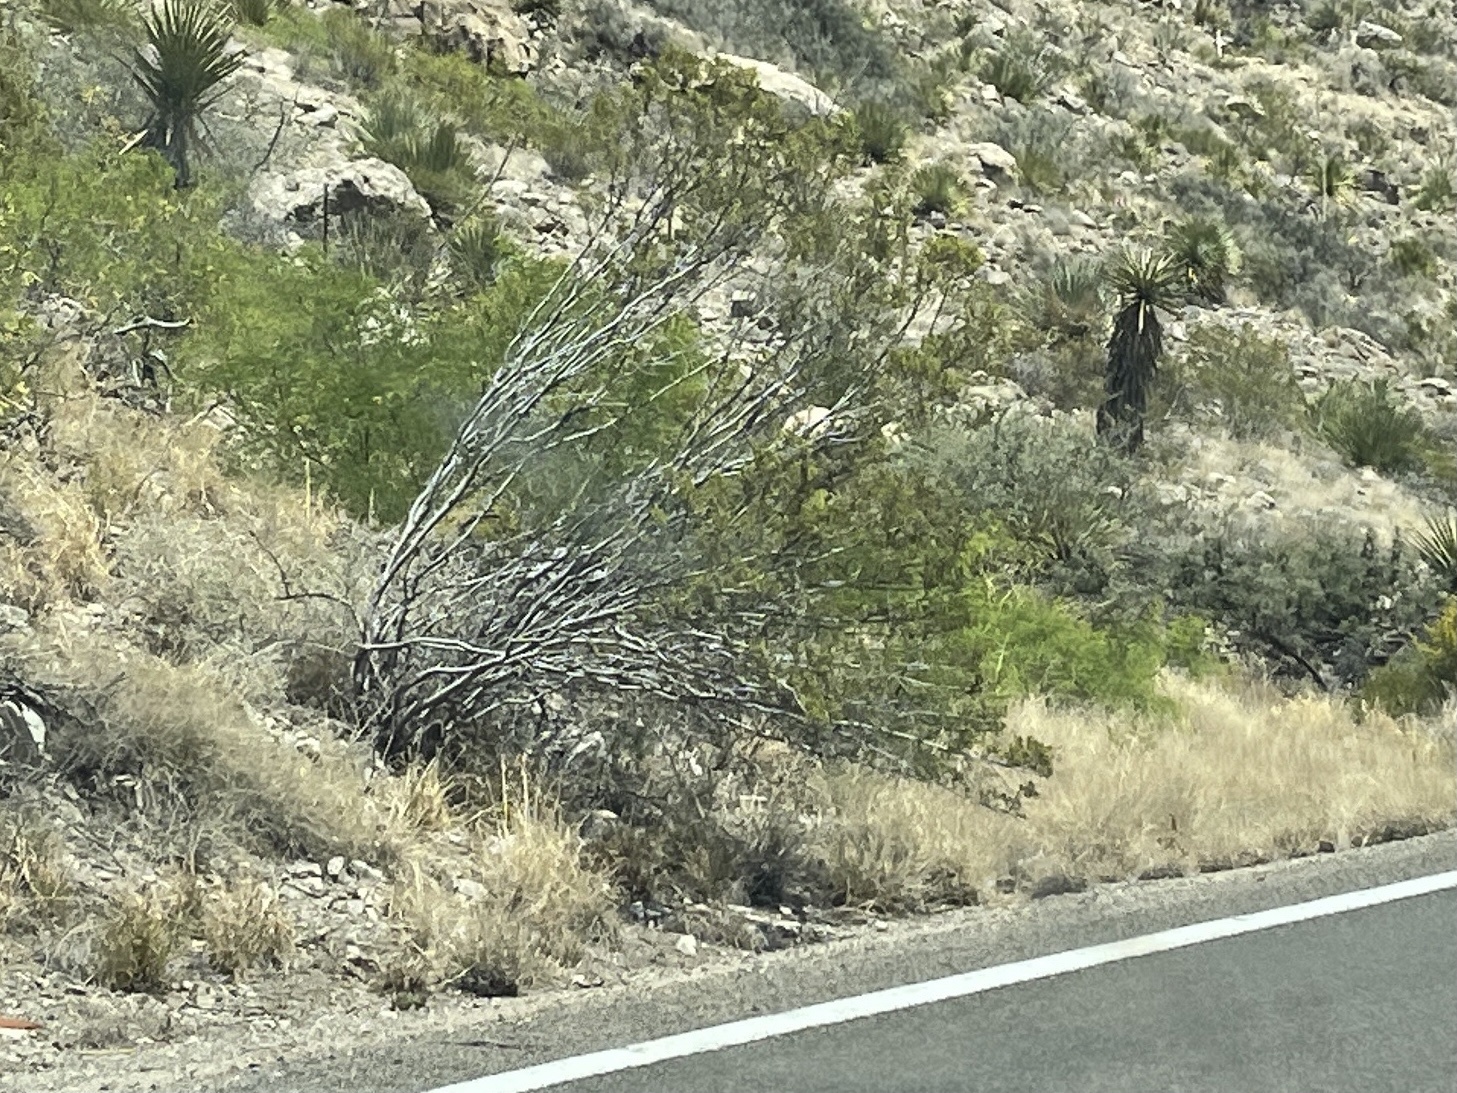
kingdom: Plantae
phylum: Tracheophyta
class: Magnoliopsida
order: Zygophyllales
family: Zygophyllaceae
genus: Larrea
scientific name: Larrea tridentata
